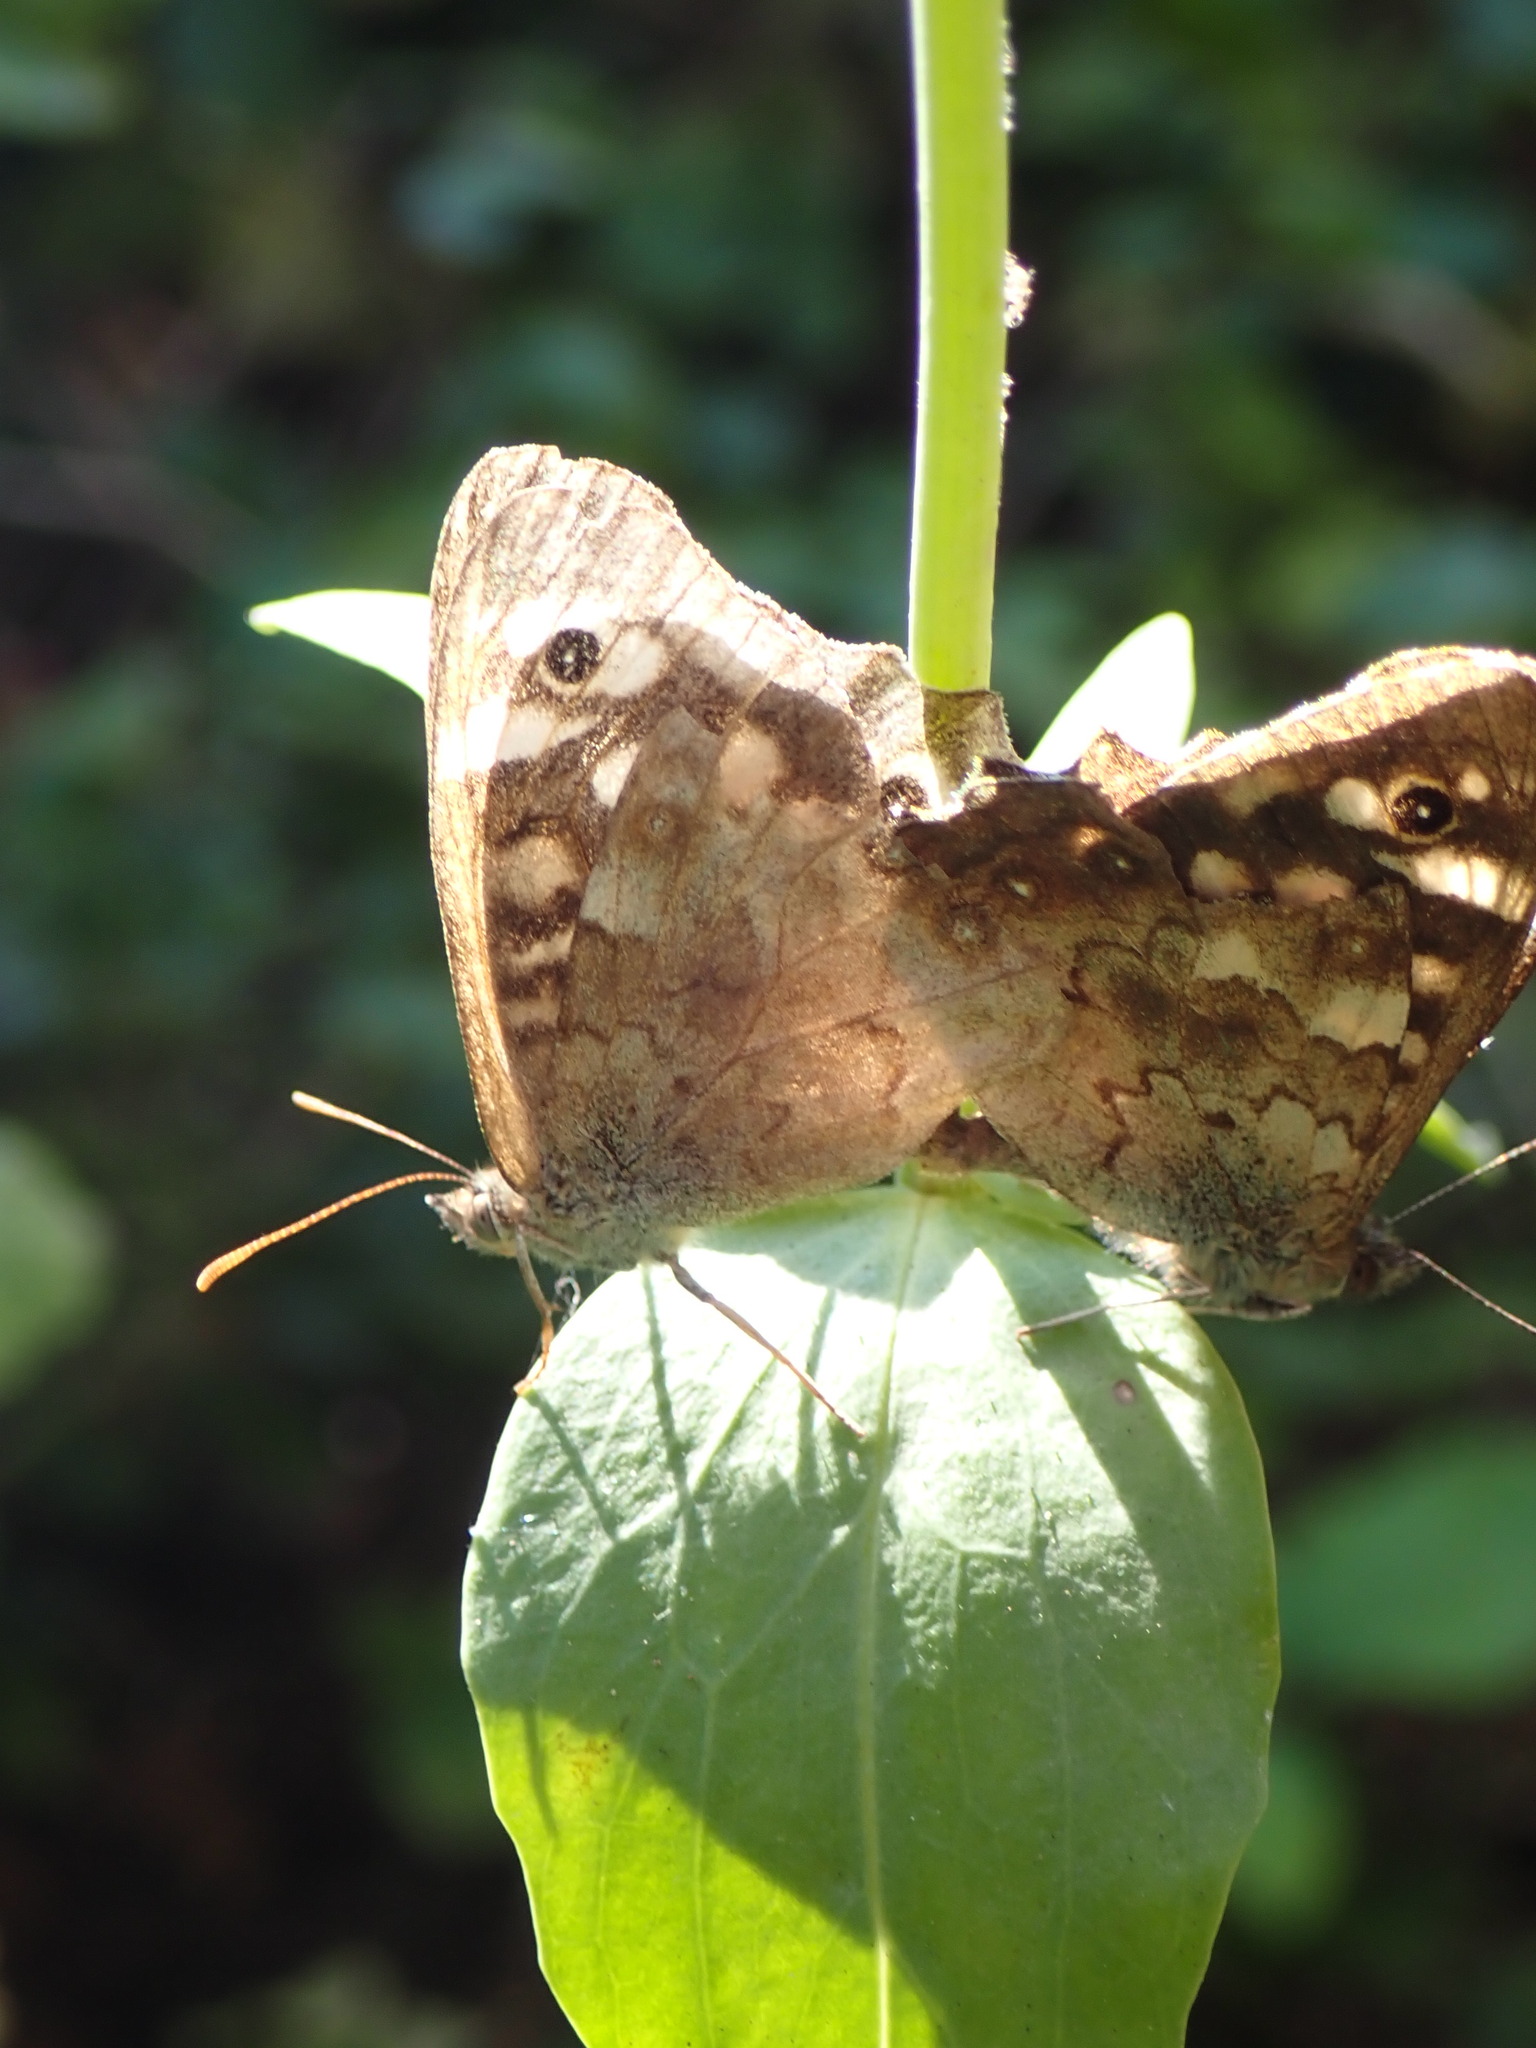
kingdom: Animalia
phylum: Arthropoda
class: Insecta
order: Lepidoptera
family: Nymphalidae
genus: Pararge
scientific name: Pararge aegeria
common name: Speckled wood
